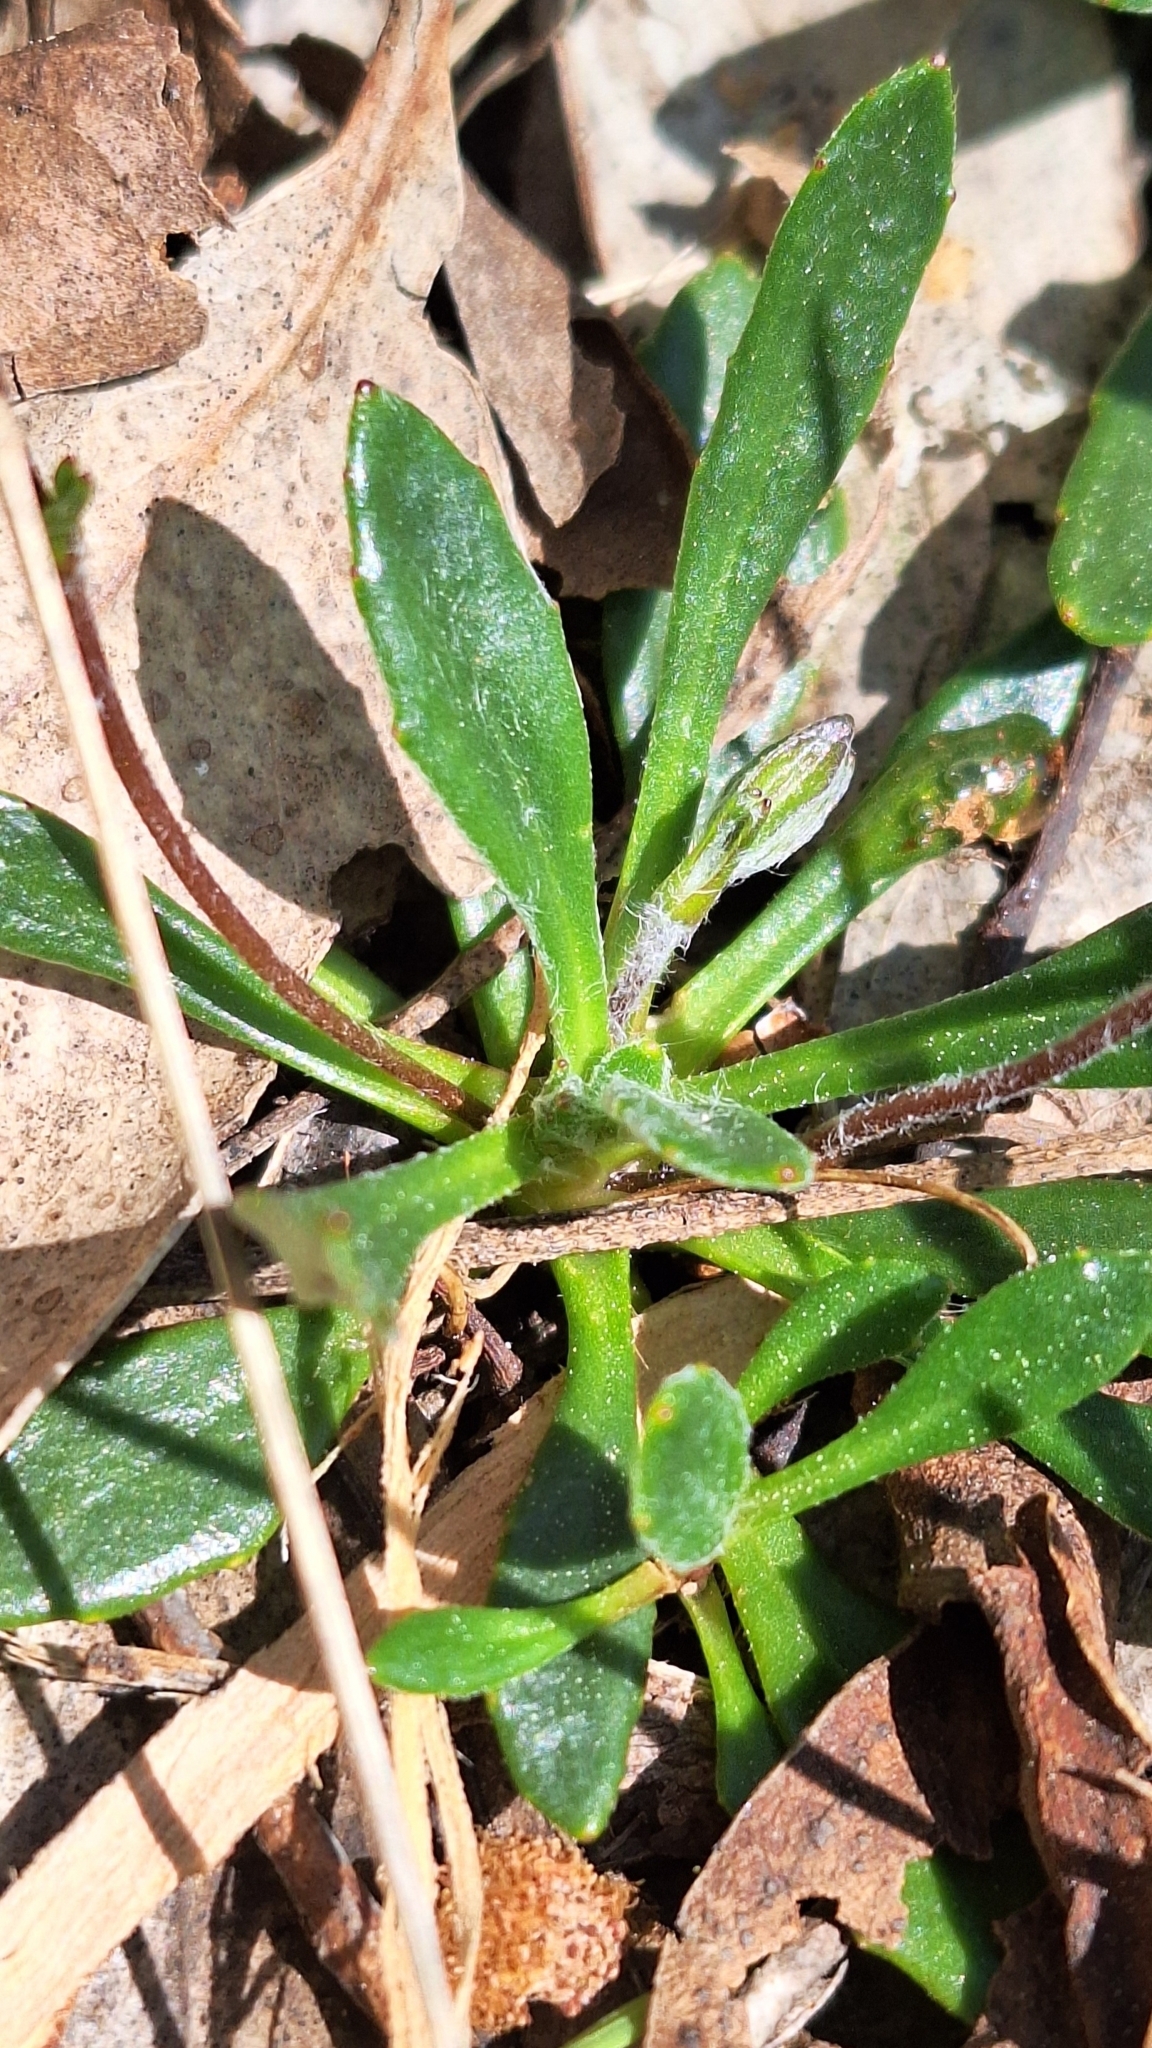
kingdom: Plantae
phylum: Tracheophyta
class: Magnoliopsida
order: Asterales
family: Goodeniaceae
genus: Goodenia
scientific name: Goodenia geniculata
